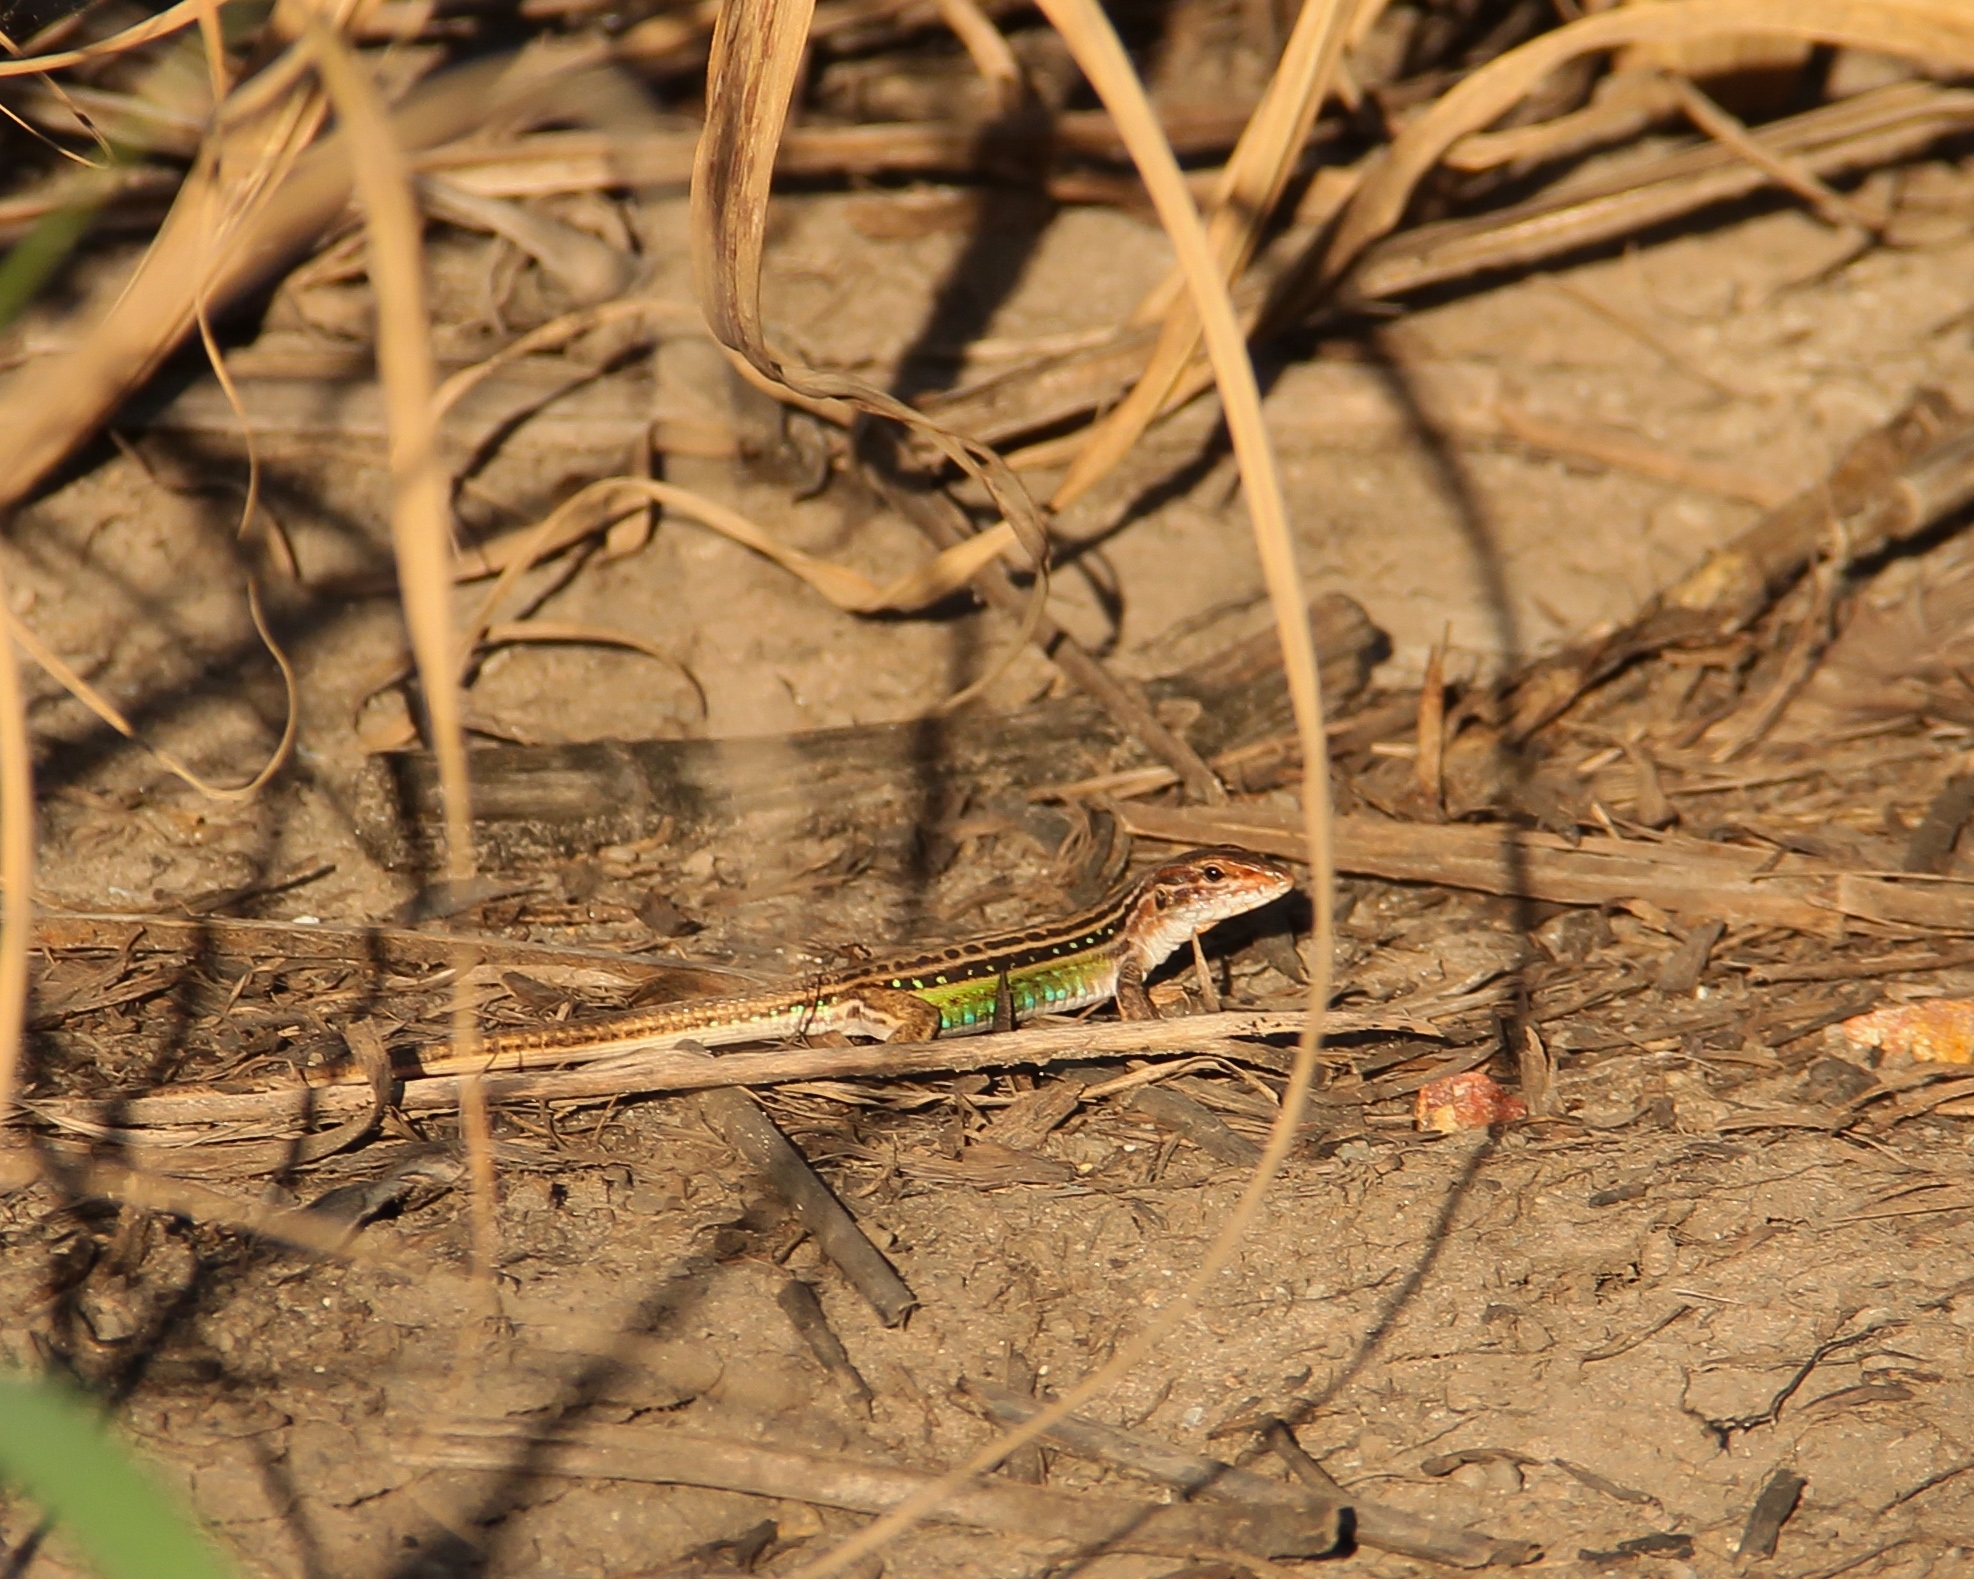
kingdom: Animalia
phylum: Chordata
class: Squamata
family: Teiidae
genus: Ameivula
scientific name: Ameivula ocellifera
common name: Spix's whiptail
